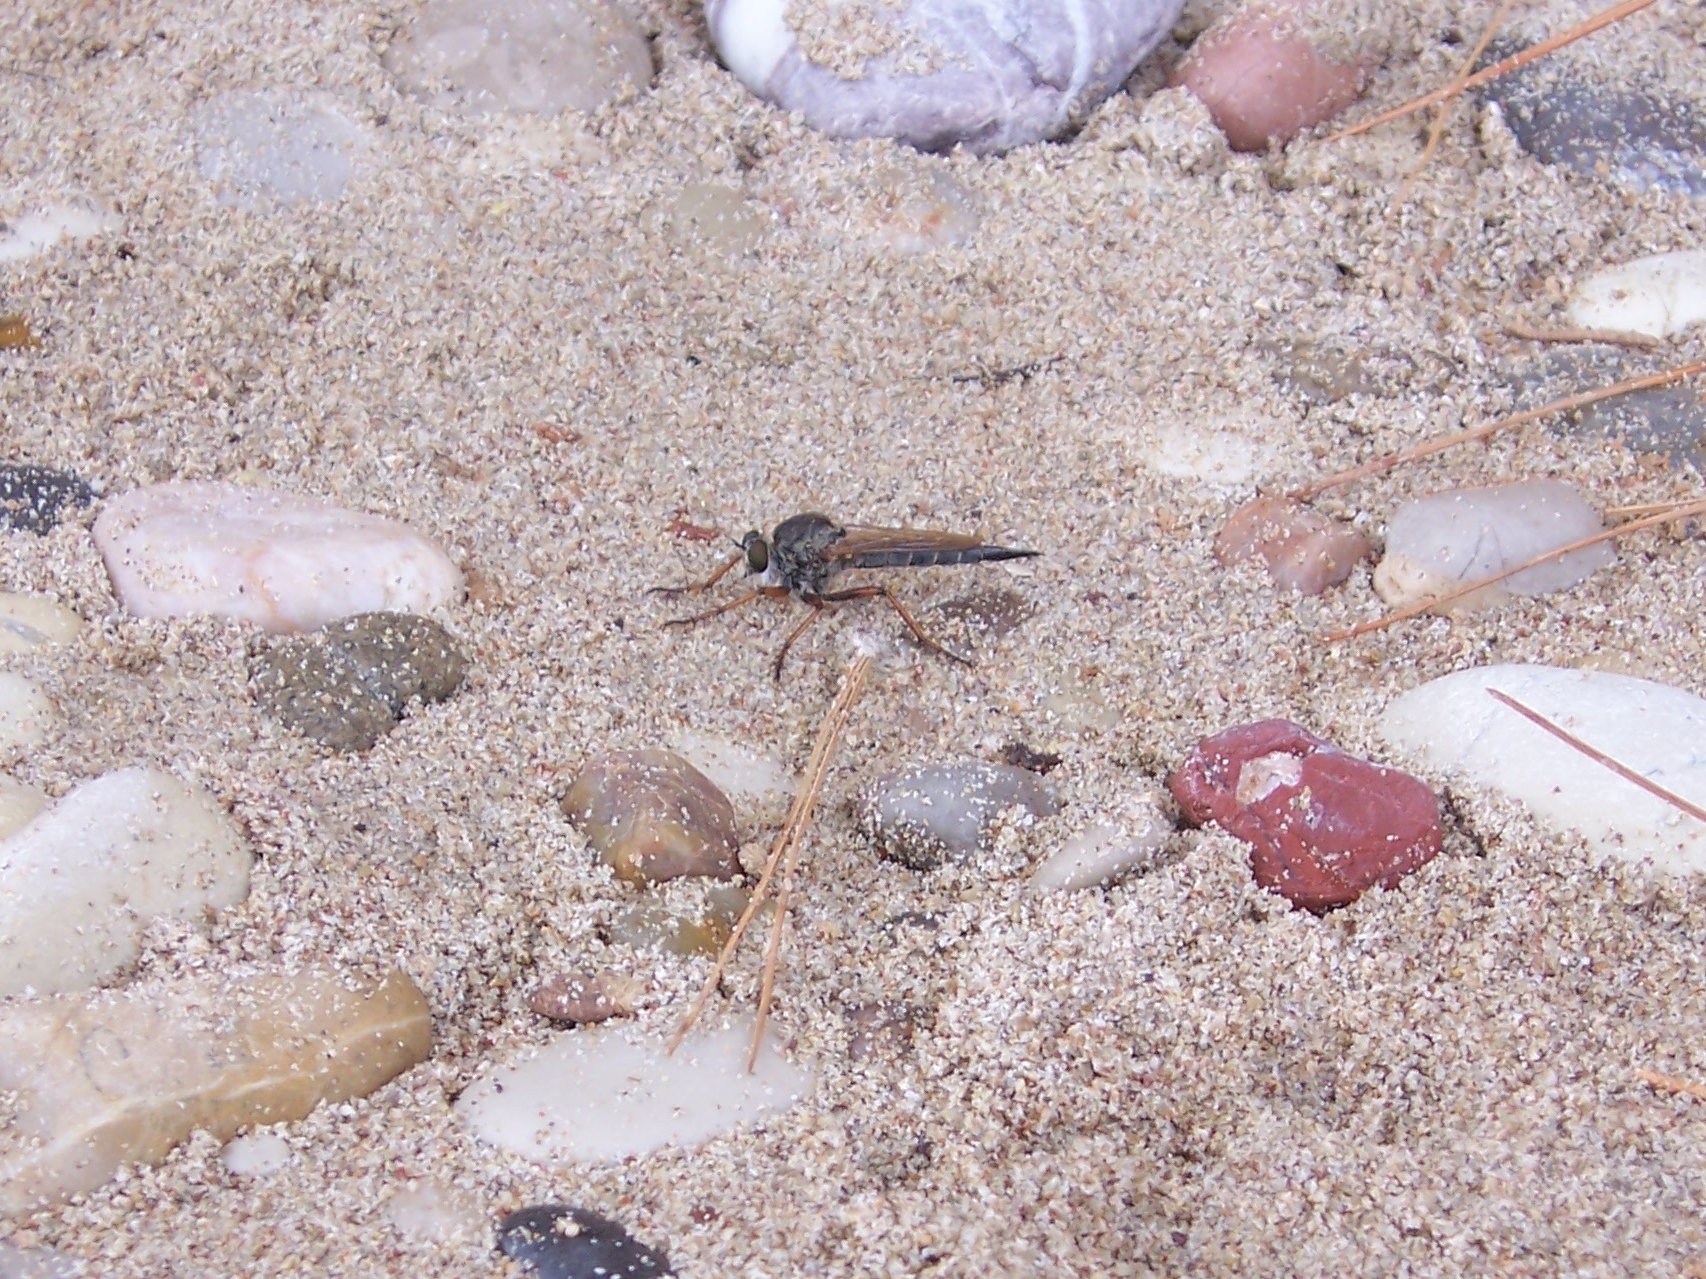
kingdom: Animalia
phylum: Arthropoda
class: Insecta
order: Diptera
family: Asilidae
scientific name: Asilidae
